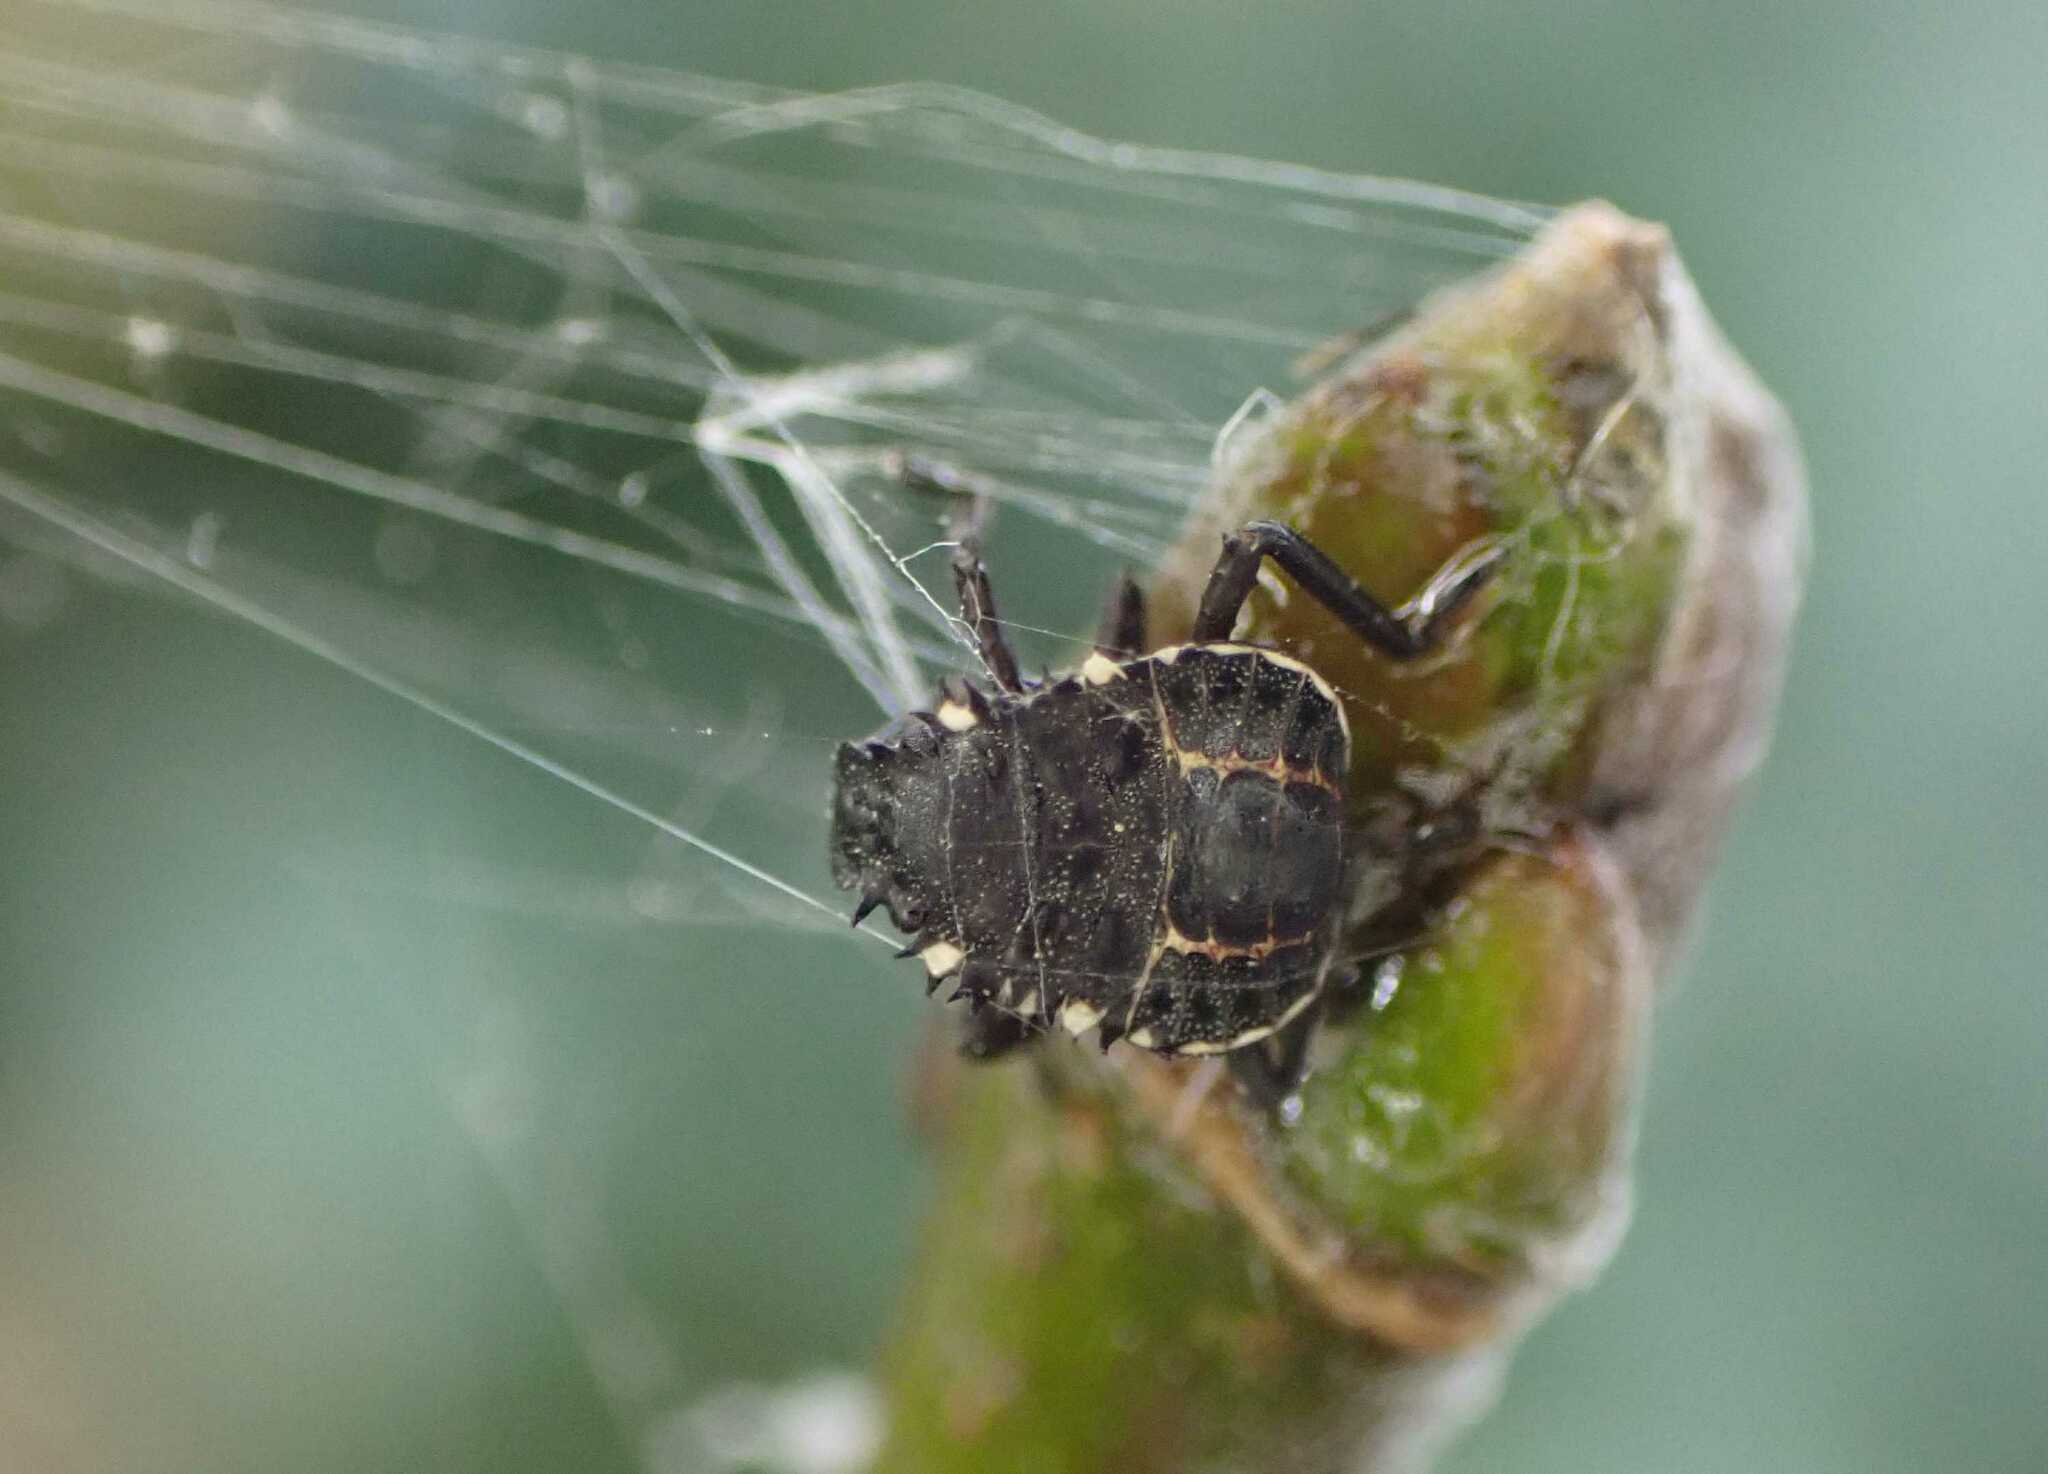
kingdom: Animalia
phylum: Arthropoda
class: Insecta
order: Hemiptera
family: Pentatomidae
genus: Halyomorpha
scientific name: Halyomorpha halys
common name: Brown marmorated stink bug
